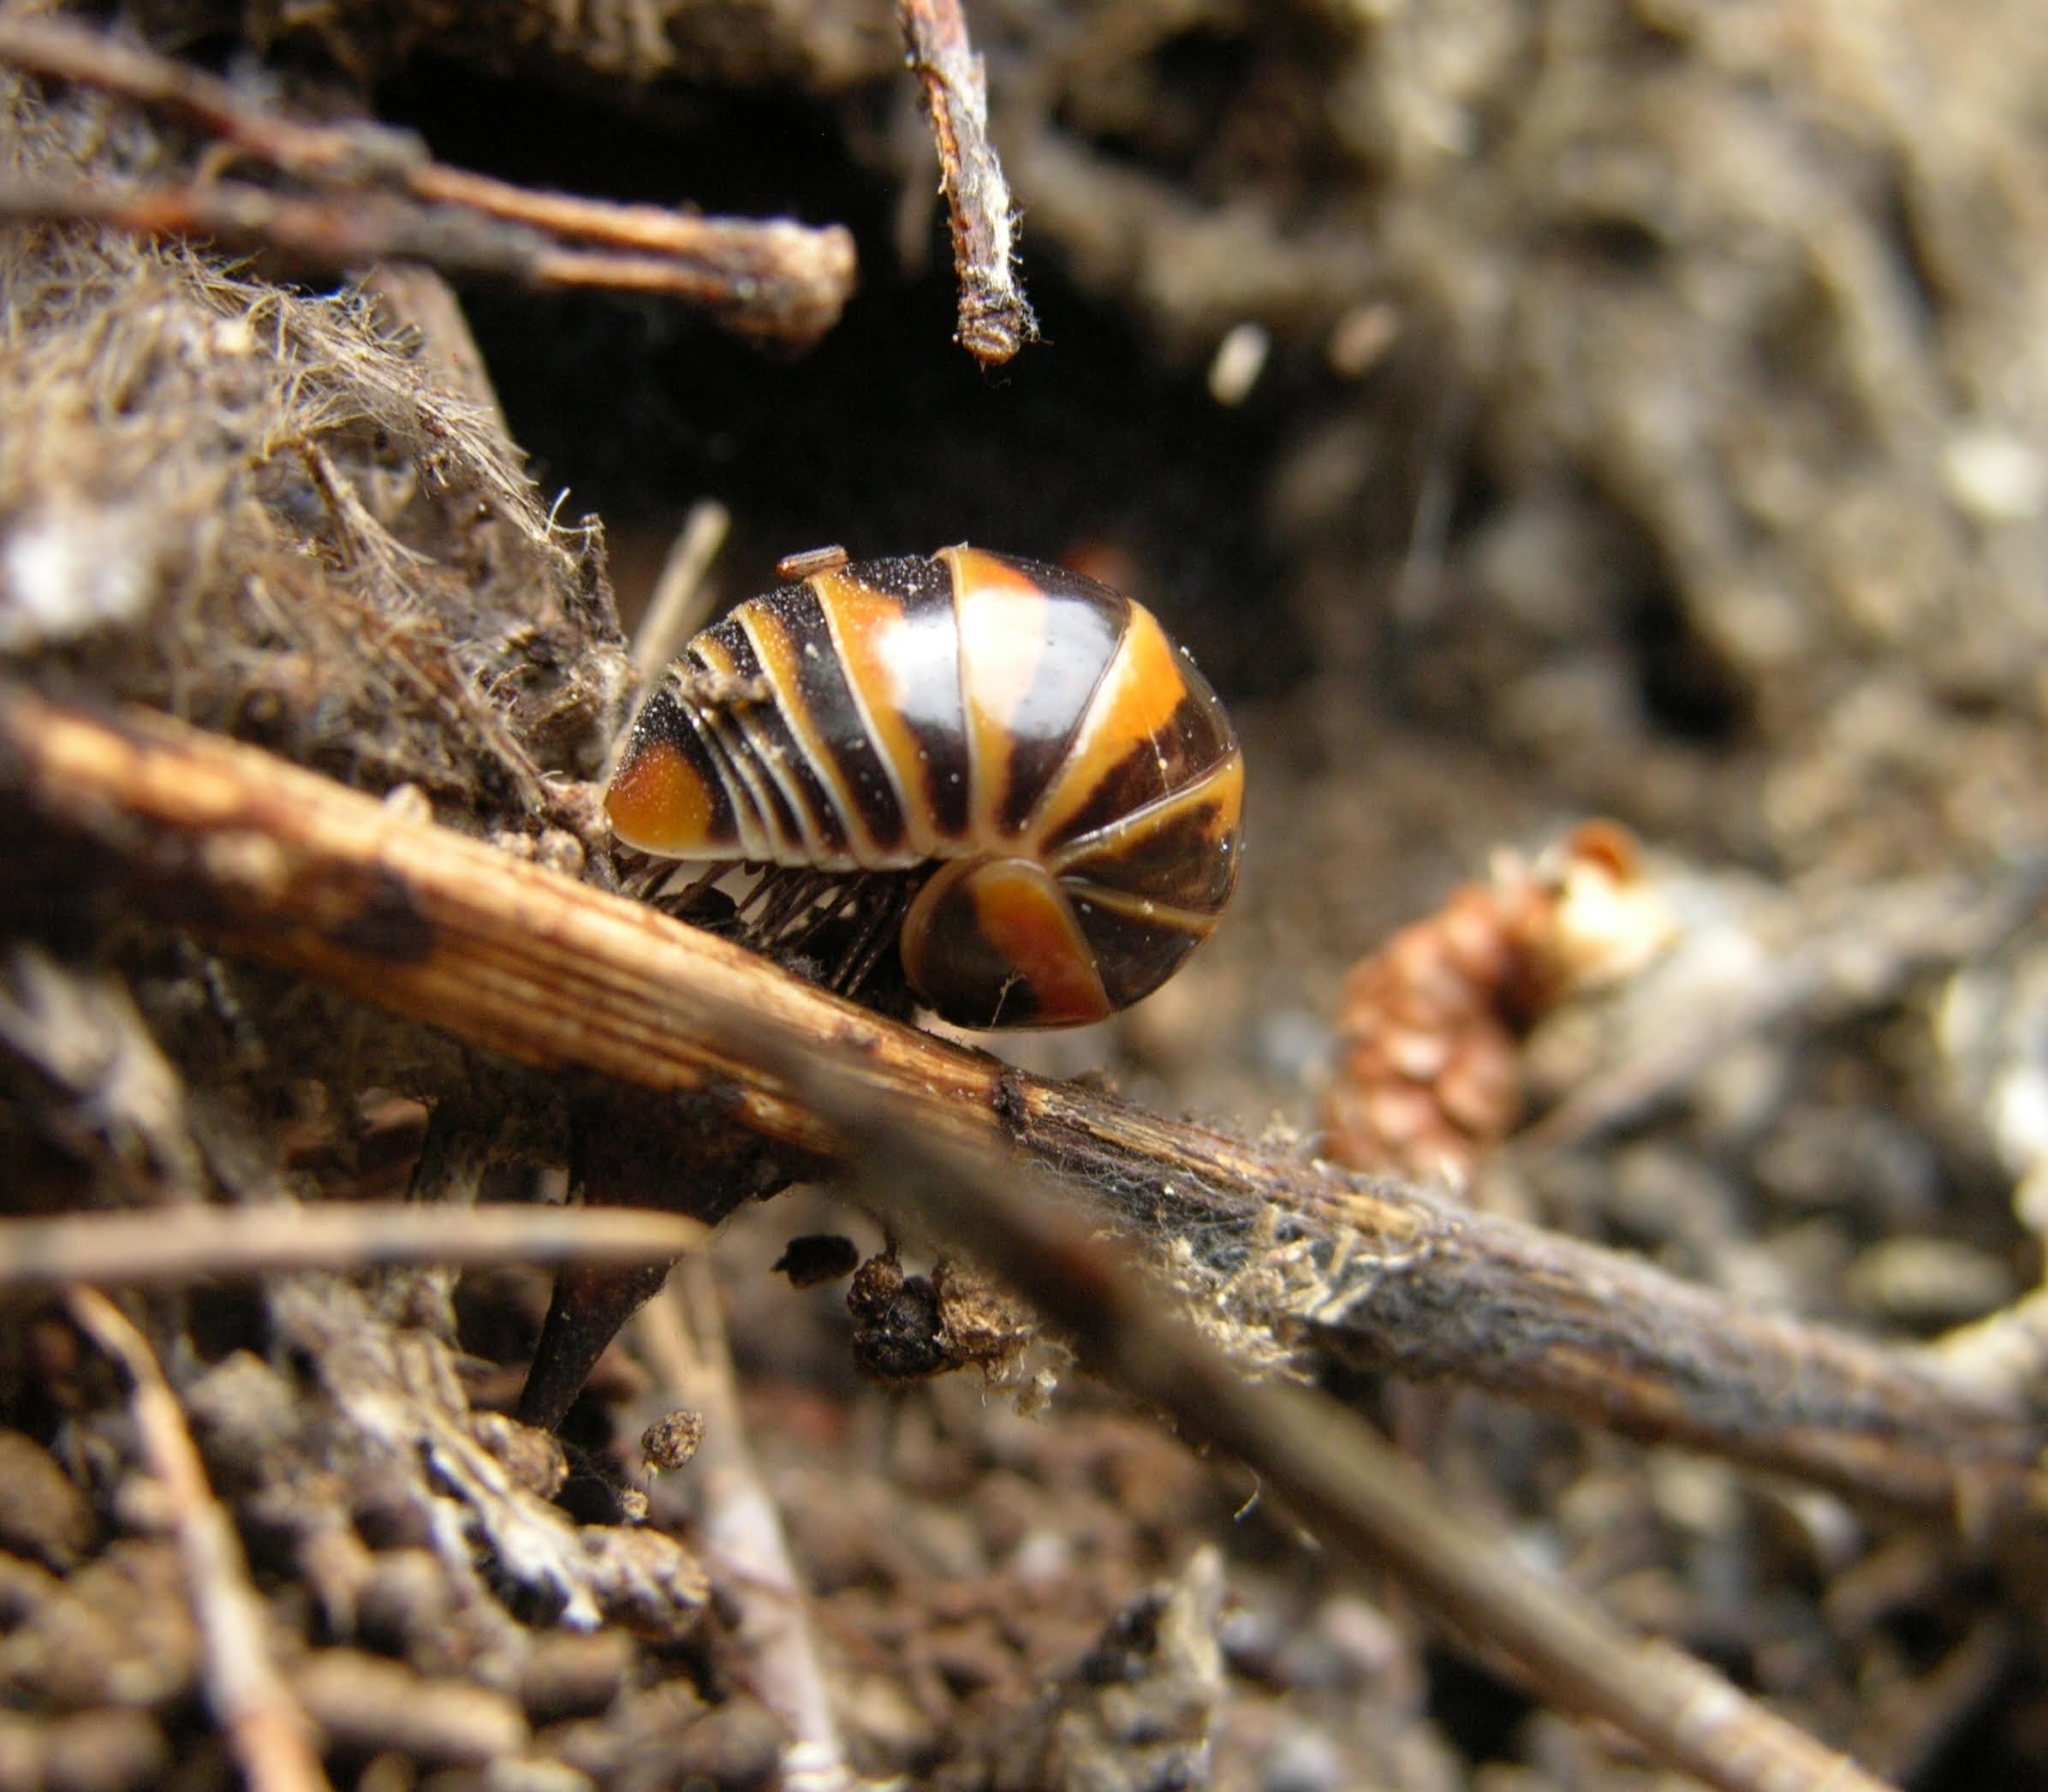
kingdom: Animalia
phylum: Arthropoda
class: Diplopoda
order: Glomerida
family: Glomeridae
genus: Glomeris
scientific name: Glomeris pulchra
